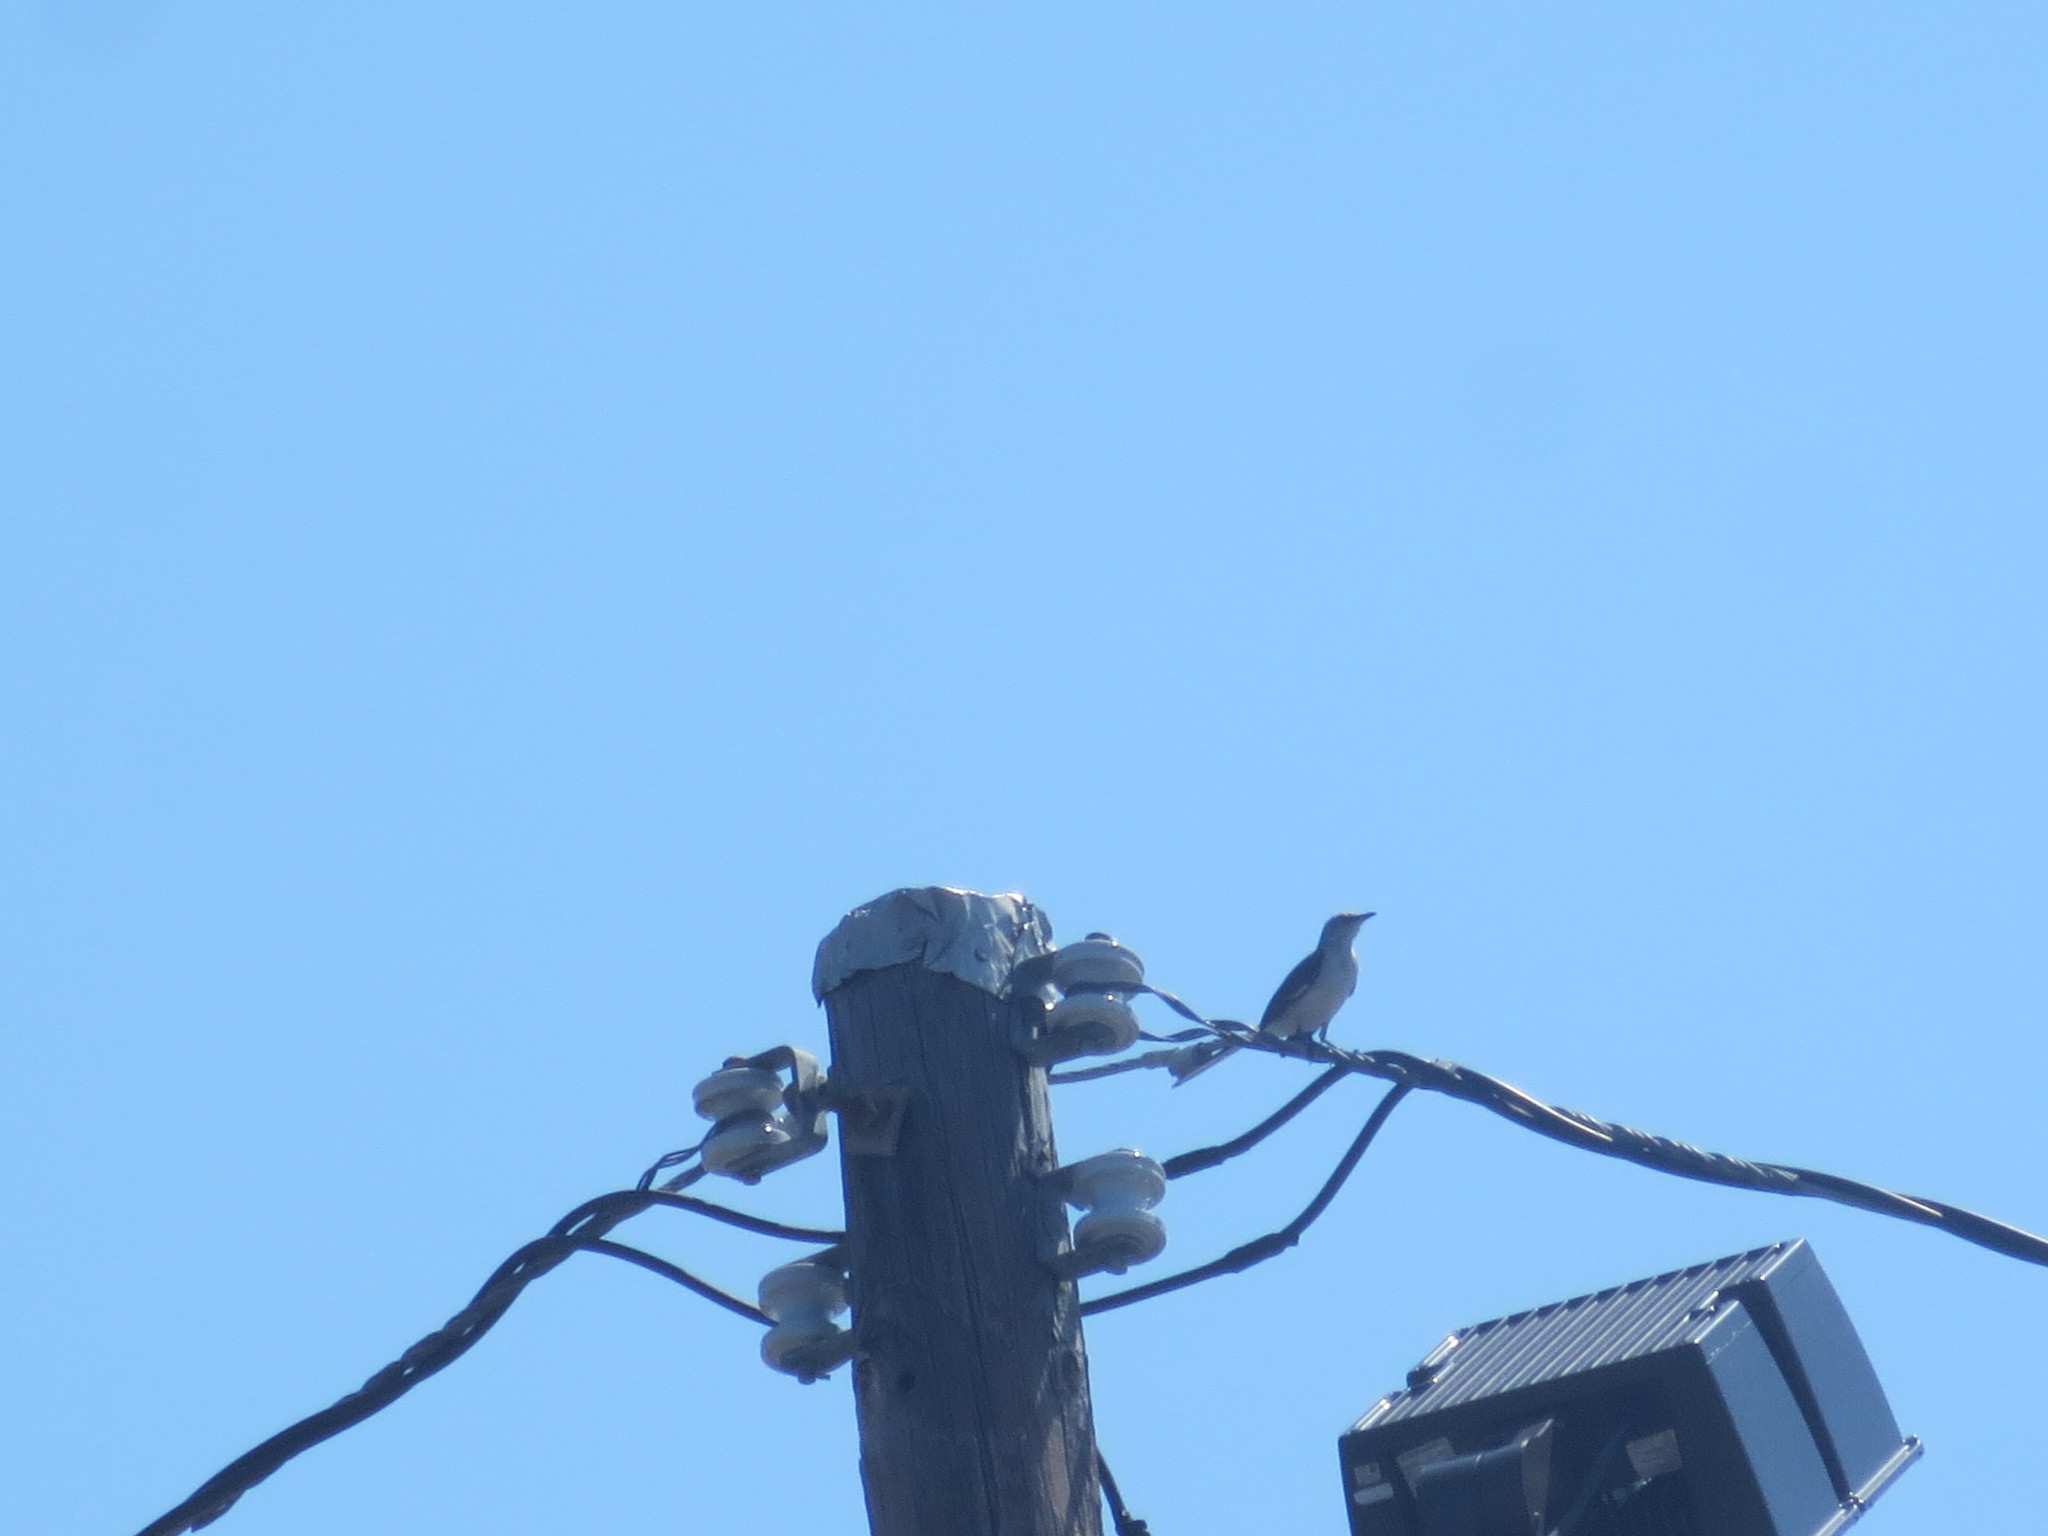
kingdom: Animalia
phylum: Chordata
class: Aves
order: Passeriformes
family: Mimidae
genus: Mimus
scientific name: Mimus polyglottos
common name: Northern mockingbird
